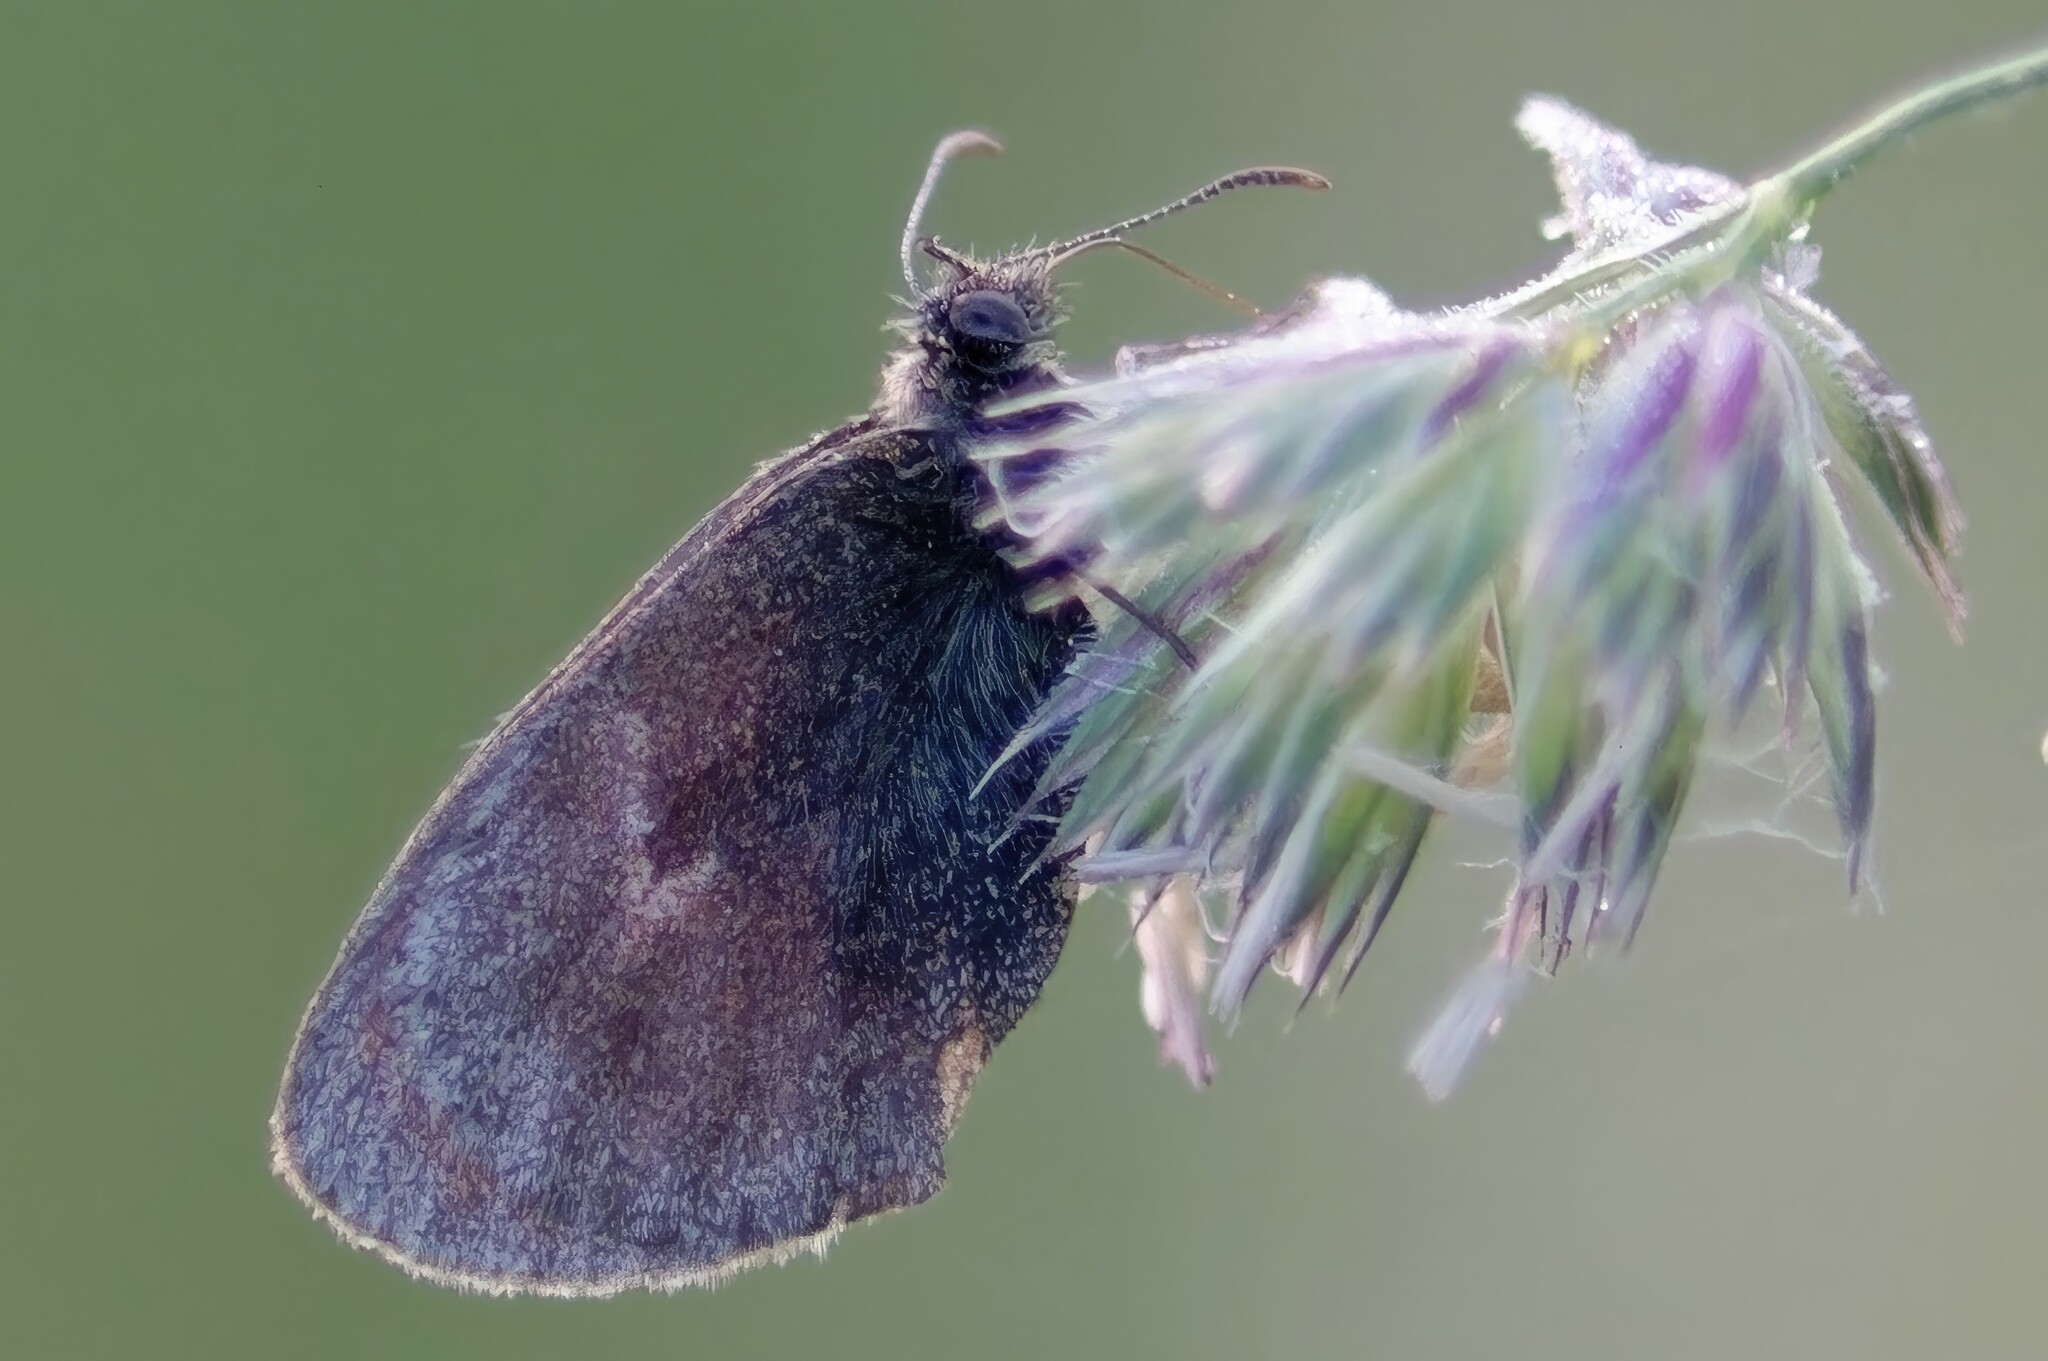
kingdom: Animalia
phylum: Arthropoda
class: Insecta
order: Lepidoptera
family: Nymphalidae
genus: Coenonympha
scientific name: Coenonympha pamphilus
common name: Small heath
